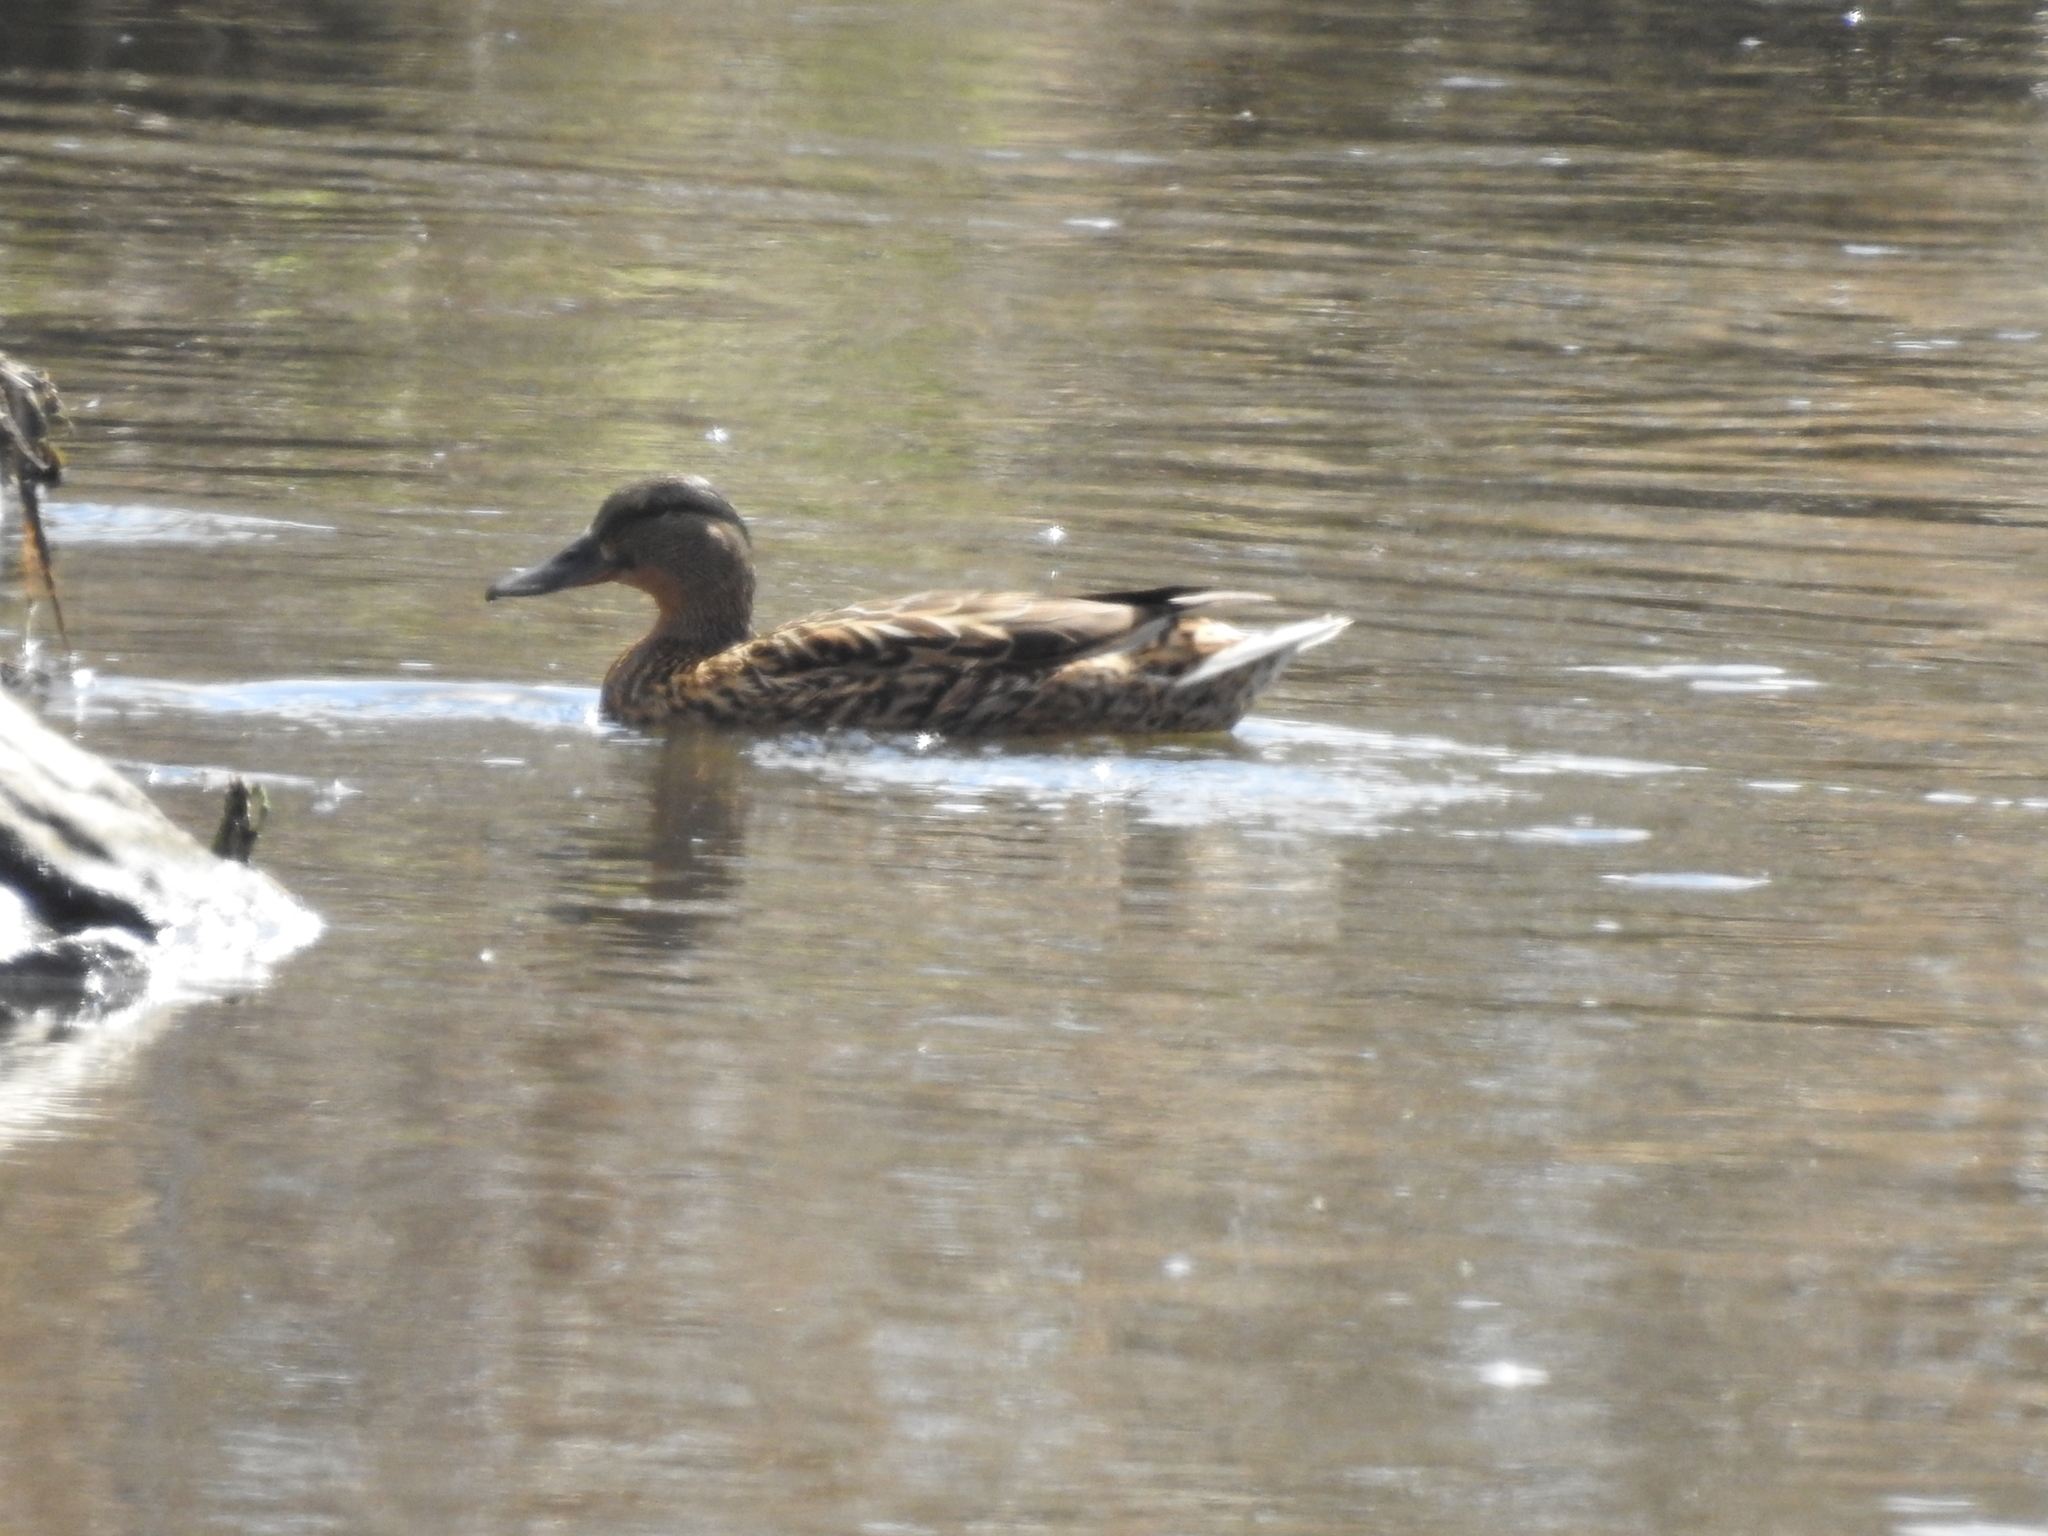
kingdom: Animalia
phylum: Chordata
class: Aves
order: Anseriformes
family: Anatidae
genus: Anas
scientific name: Anas platyrhynchos
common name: Mallard
